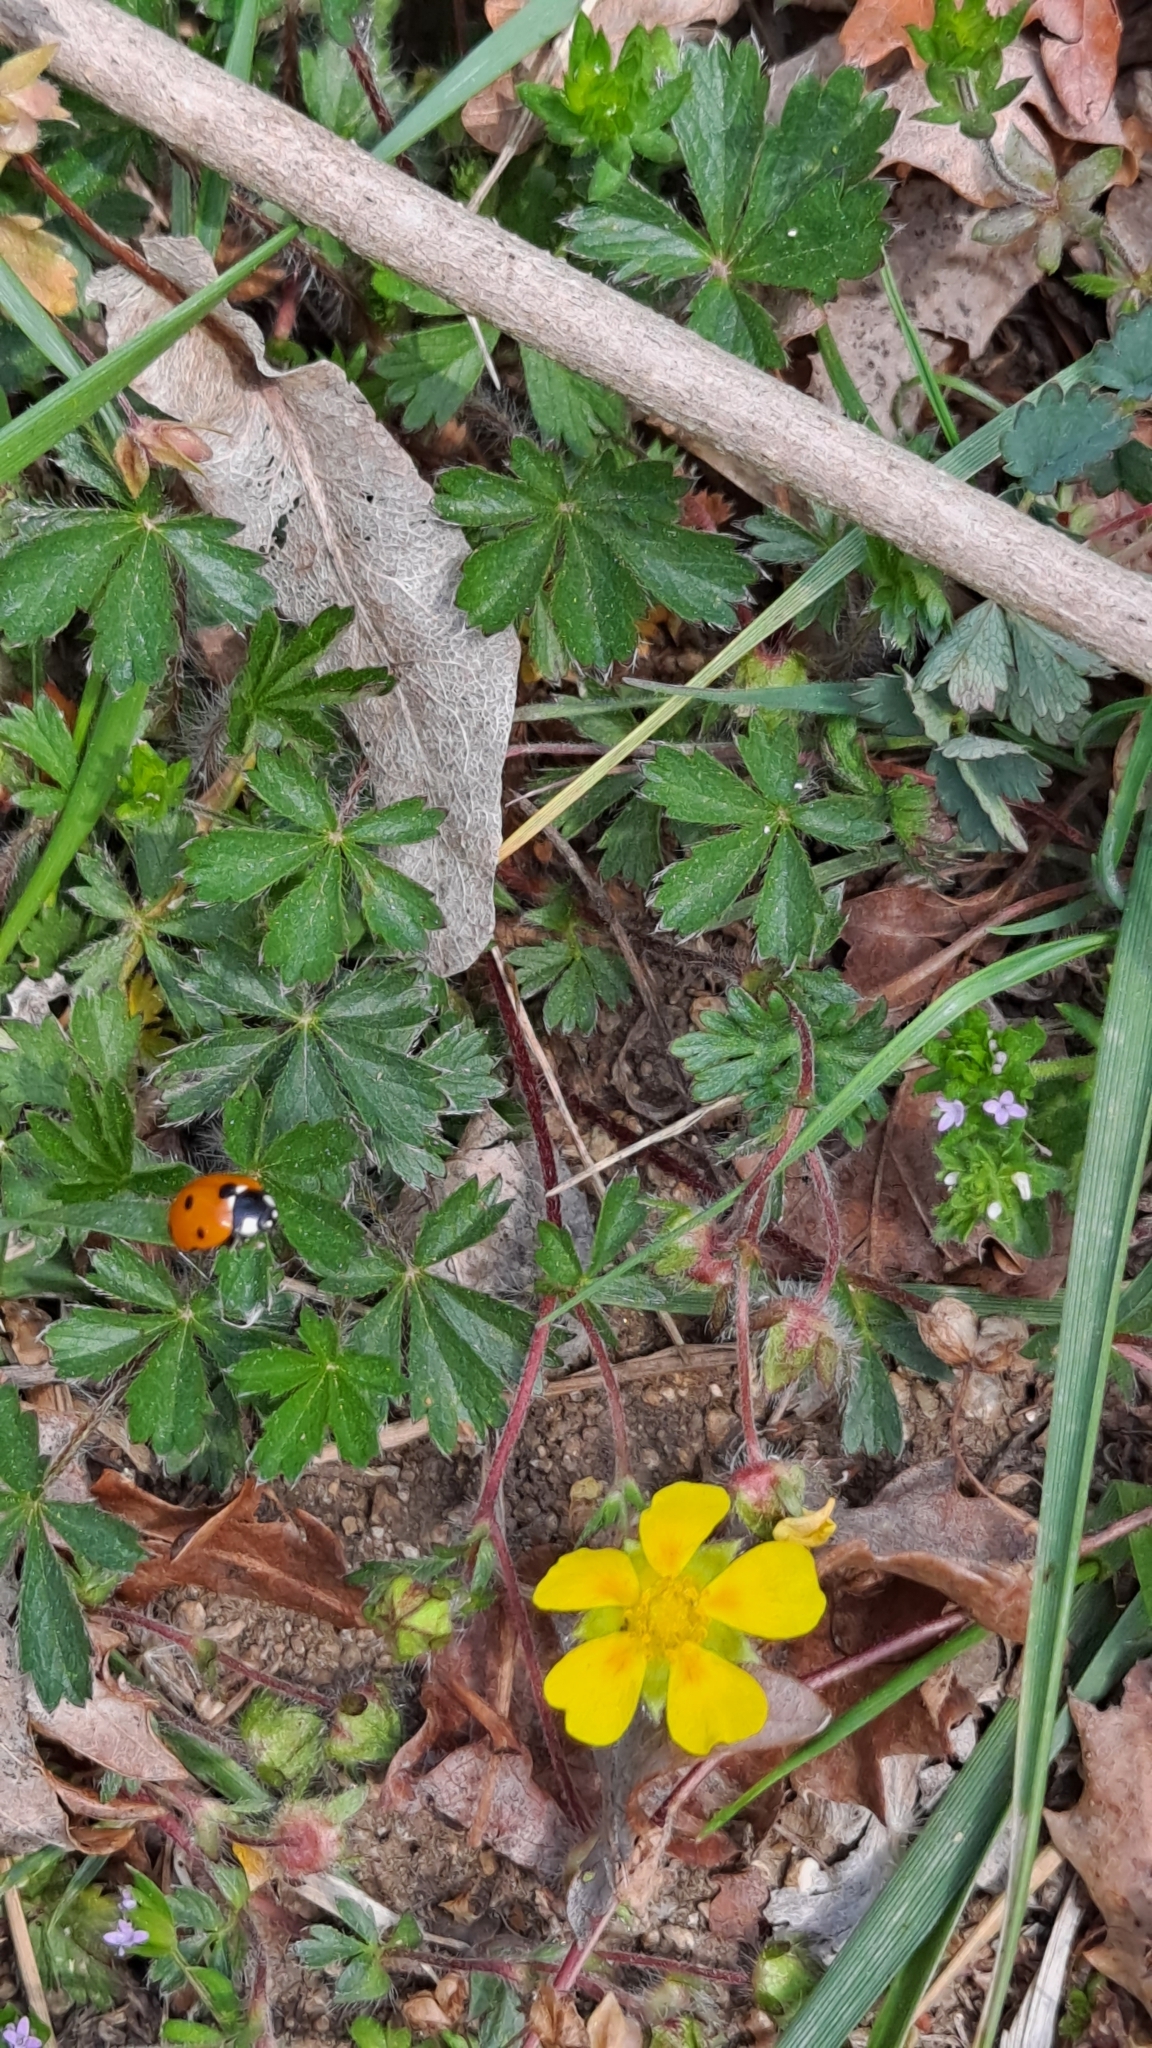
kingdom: Animalia
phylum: Arthropoda
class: Insecta
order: Coleoptera
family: Coccinellidae
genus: Coccinella
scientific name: Coccinella septempunctata
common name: Sevenspotted lady beetle
